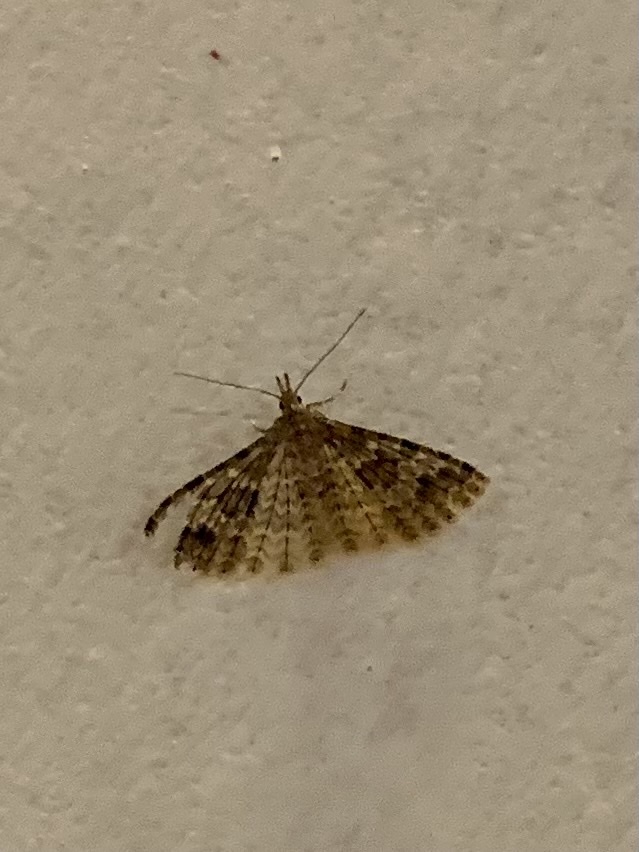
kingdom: Animalia
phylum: Arthropoda
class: Insecta
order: Lepidoptera
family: Alucitidae
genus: Alucita
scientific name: Alucita hexadactyla
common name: Twenty-plume moth
